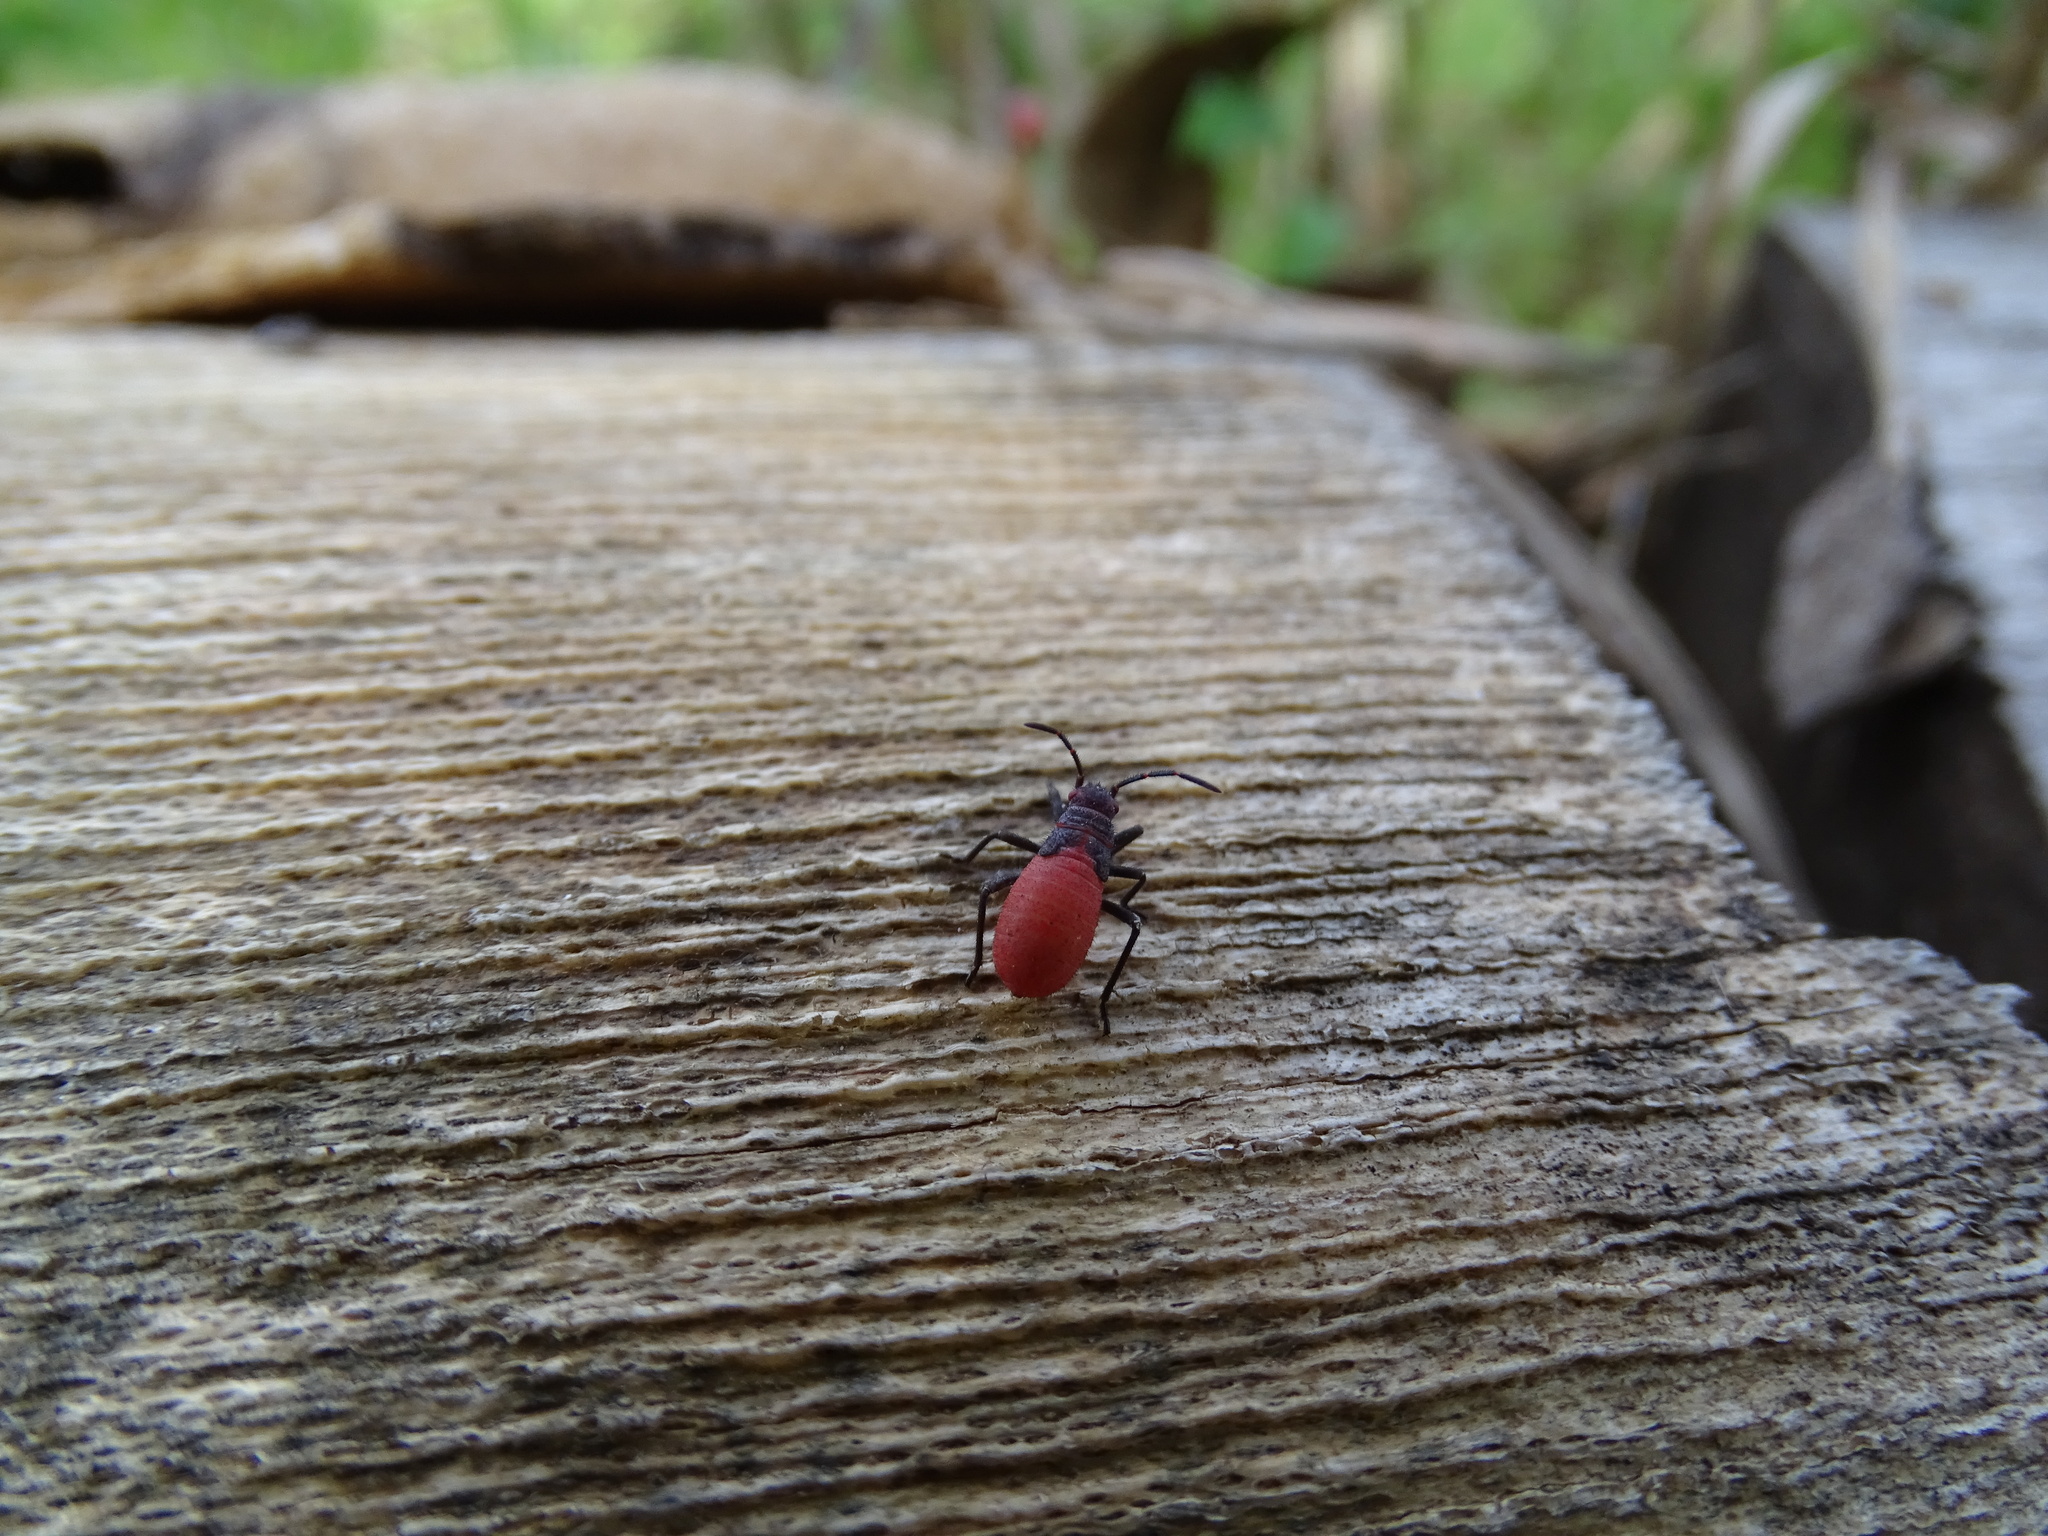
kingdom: Animalia
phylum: Arthropoda
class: Insecta
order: Hemiptera
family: Rhopalidae
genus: Jadera
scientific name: Jadera haematoloma
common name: Red-shouldered bug
